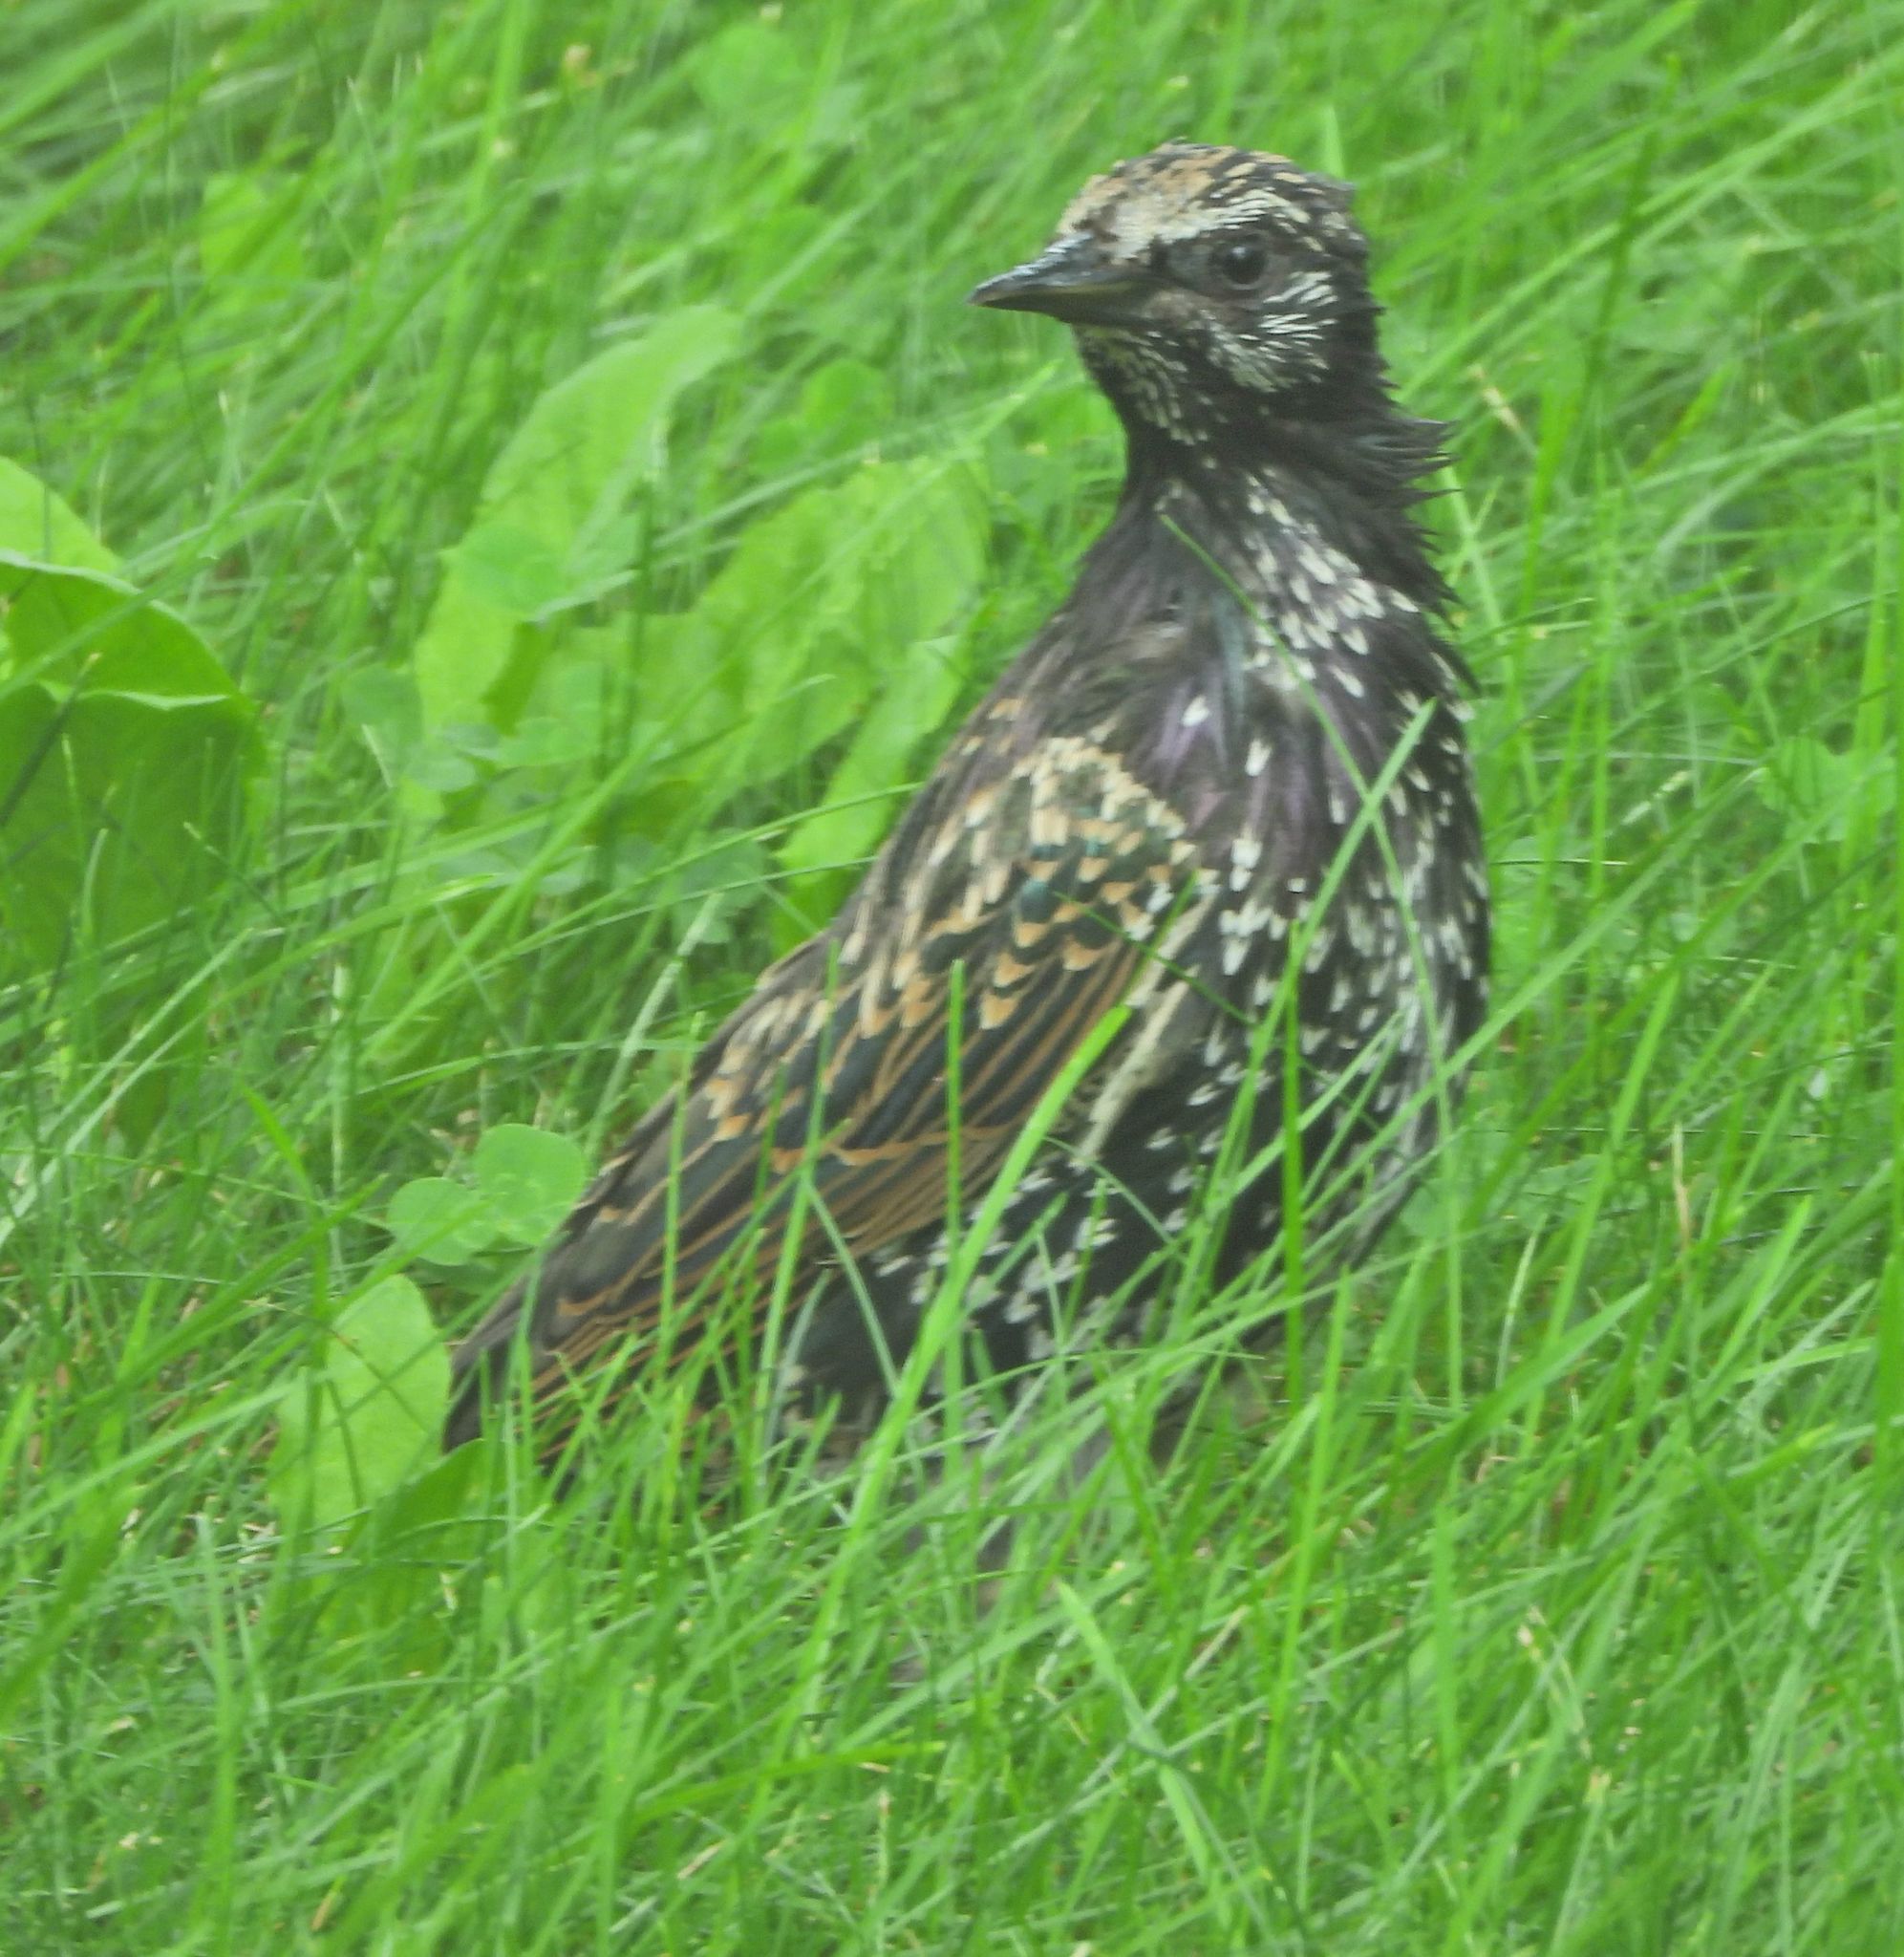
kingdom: Animalia
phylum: Chordata
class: Aves
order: Passeriformes
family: Sturnidae
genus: Sturnus
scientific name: Sturnus vulgaris
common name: Common starling
